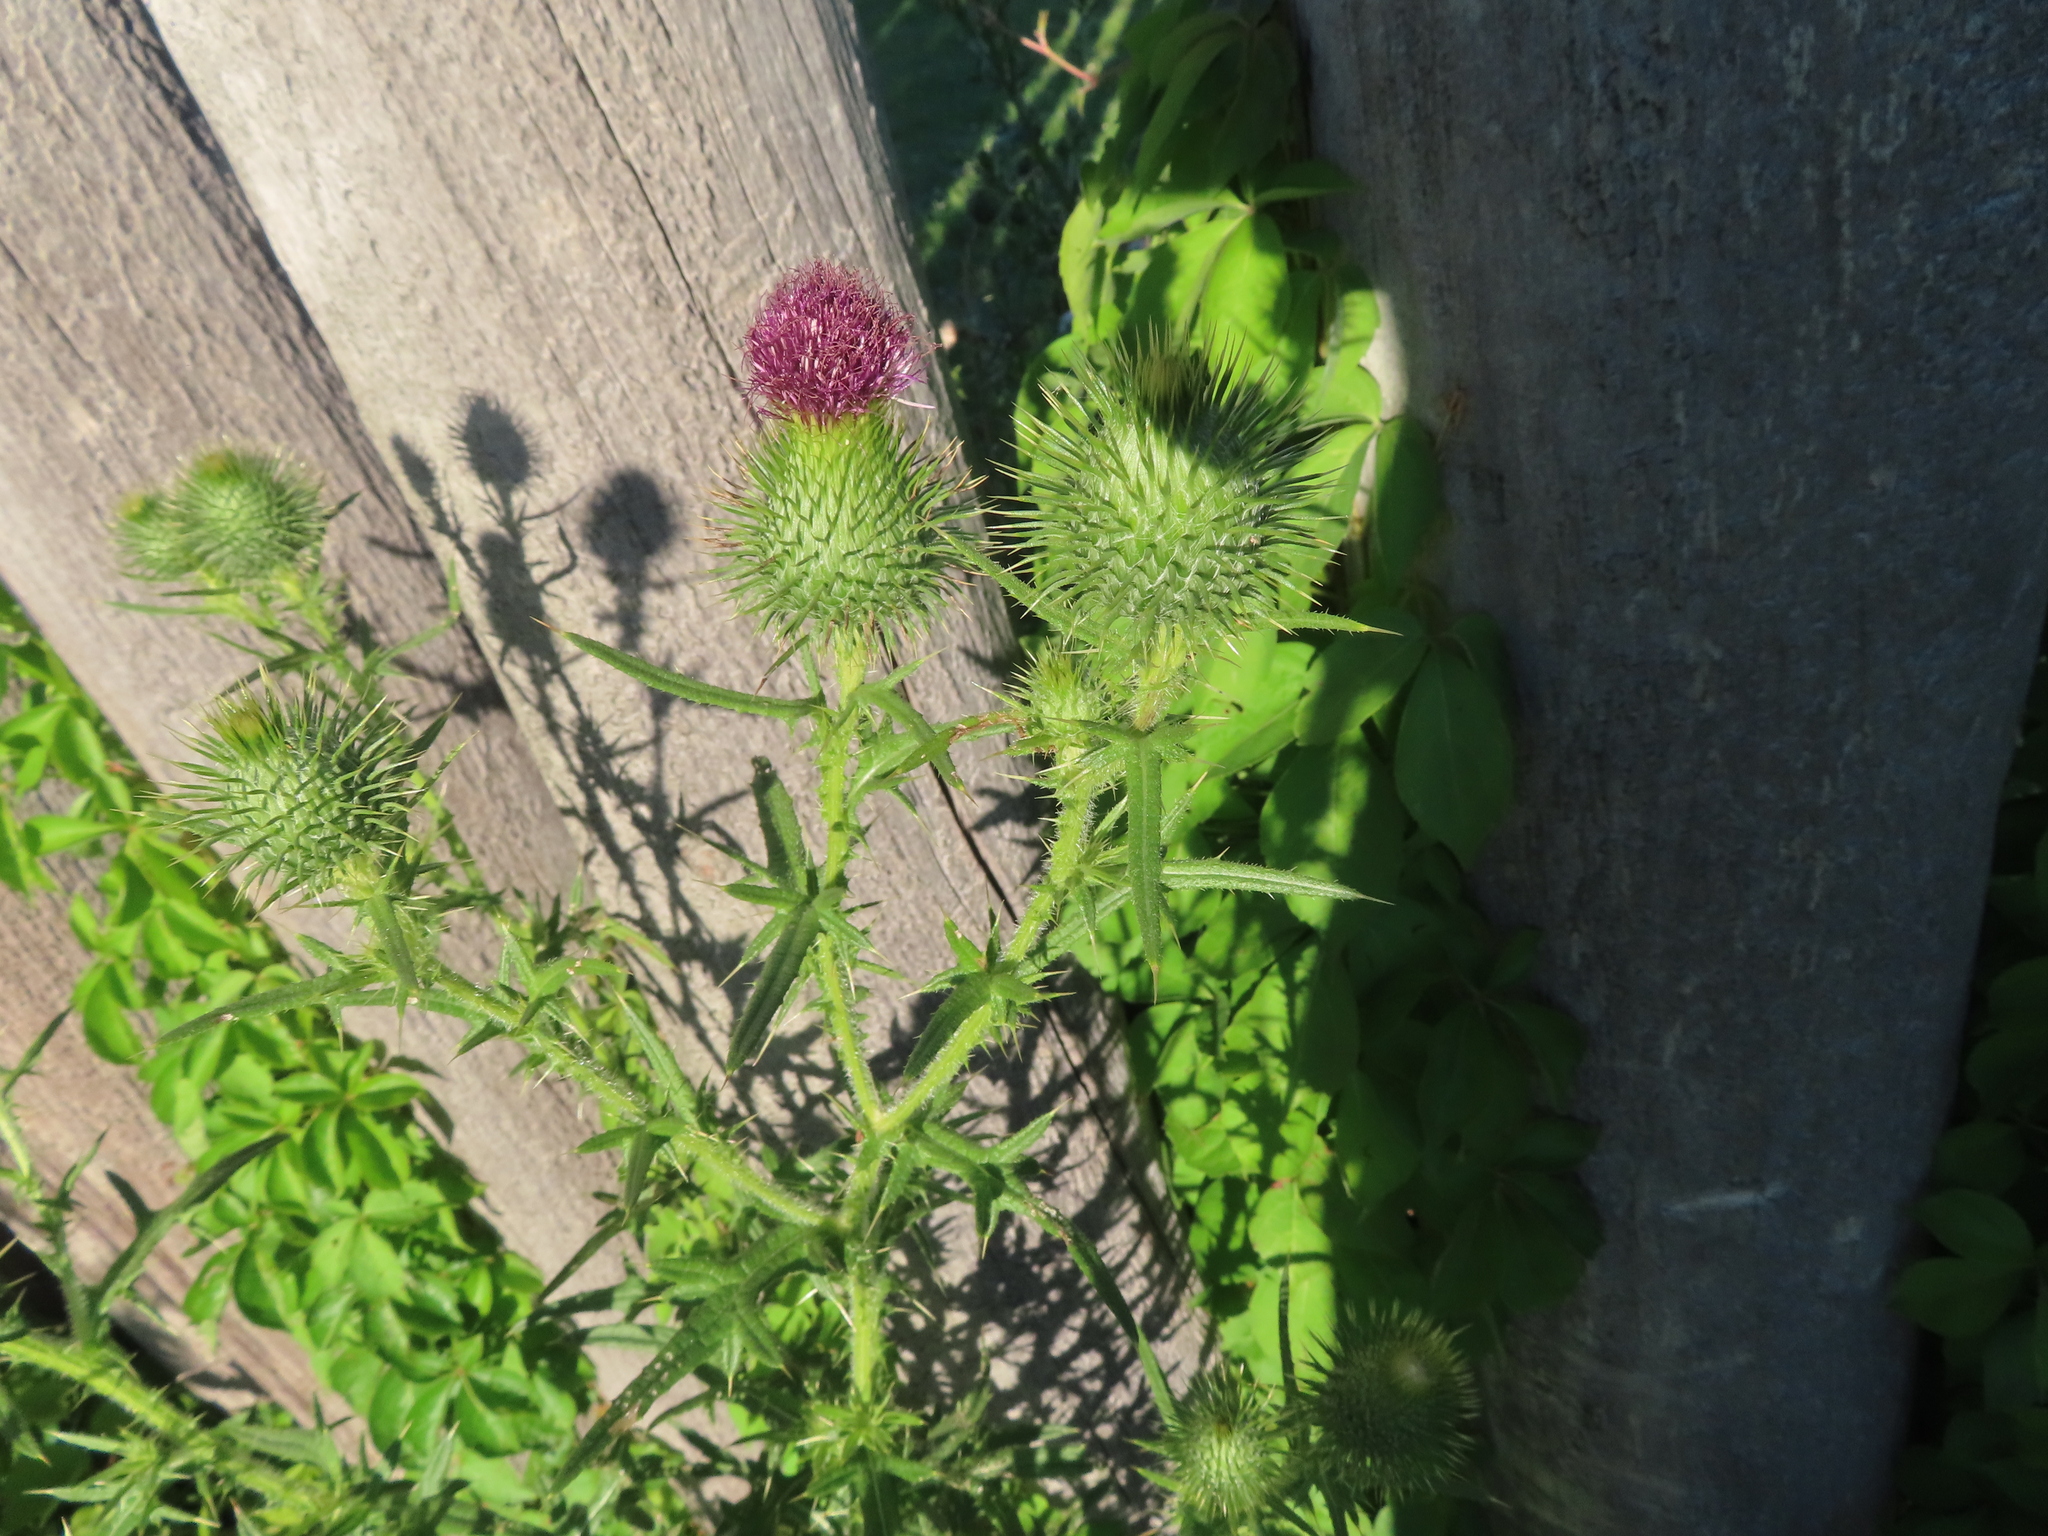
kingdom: Plantae
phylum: Tracheophyta
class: Magnoliopsida
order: Asterales
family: Asteraceae
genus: Cirsium
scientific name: Cirsium vulgare
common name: Bull thistle
